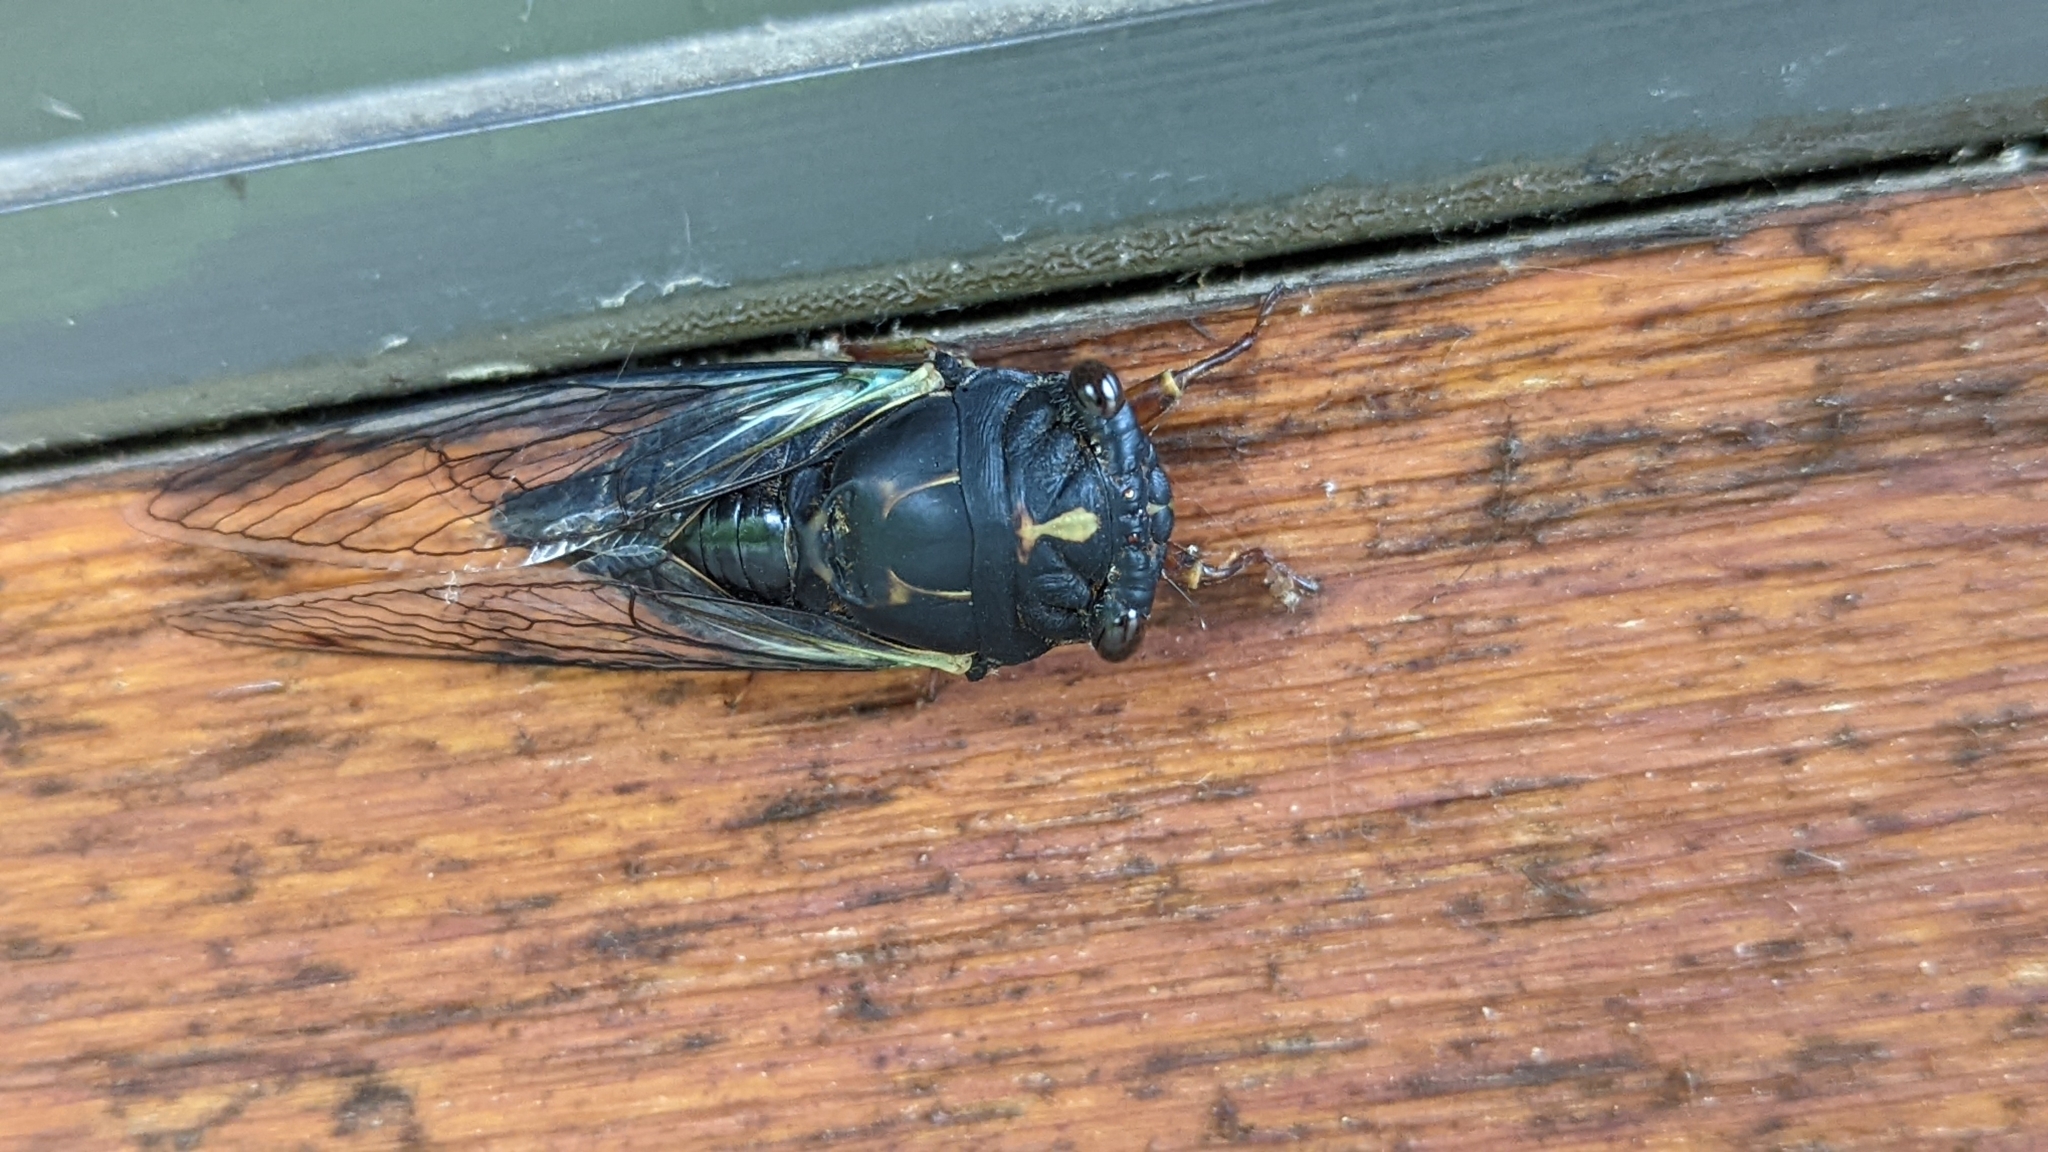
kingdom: Animalia
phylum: Arthropoda
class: Insecta
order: Hemiptera
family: Cicadidae
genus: Neotibicen
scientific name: Neotibicen lyricen
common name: Lyric cicada
